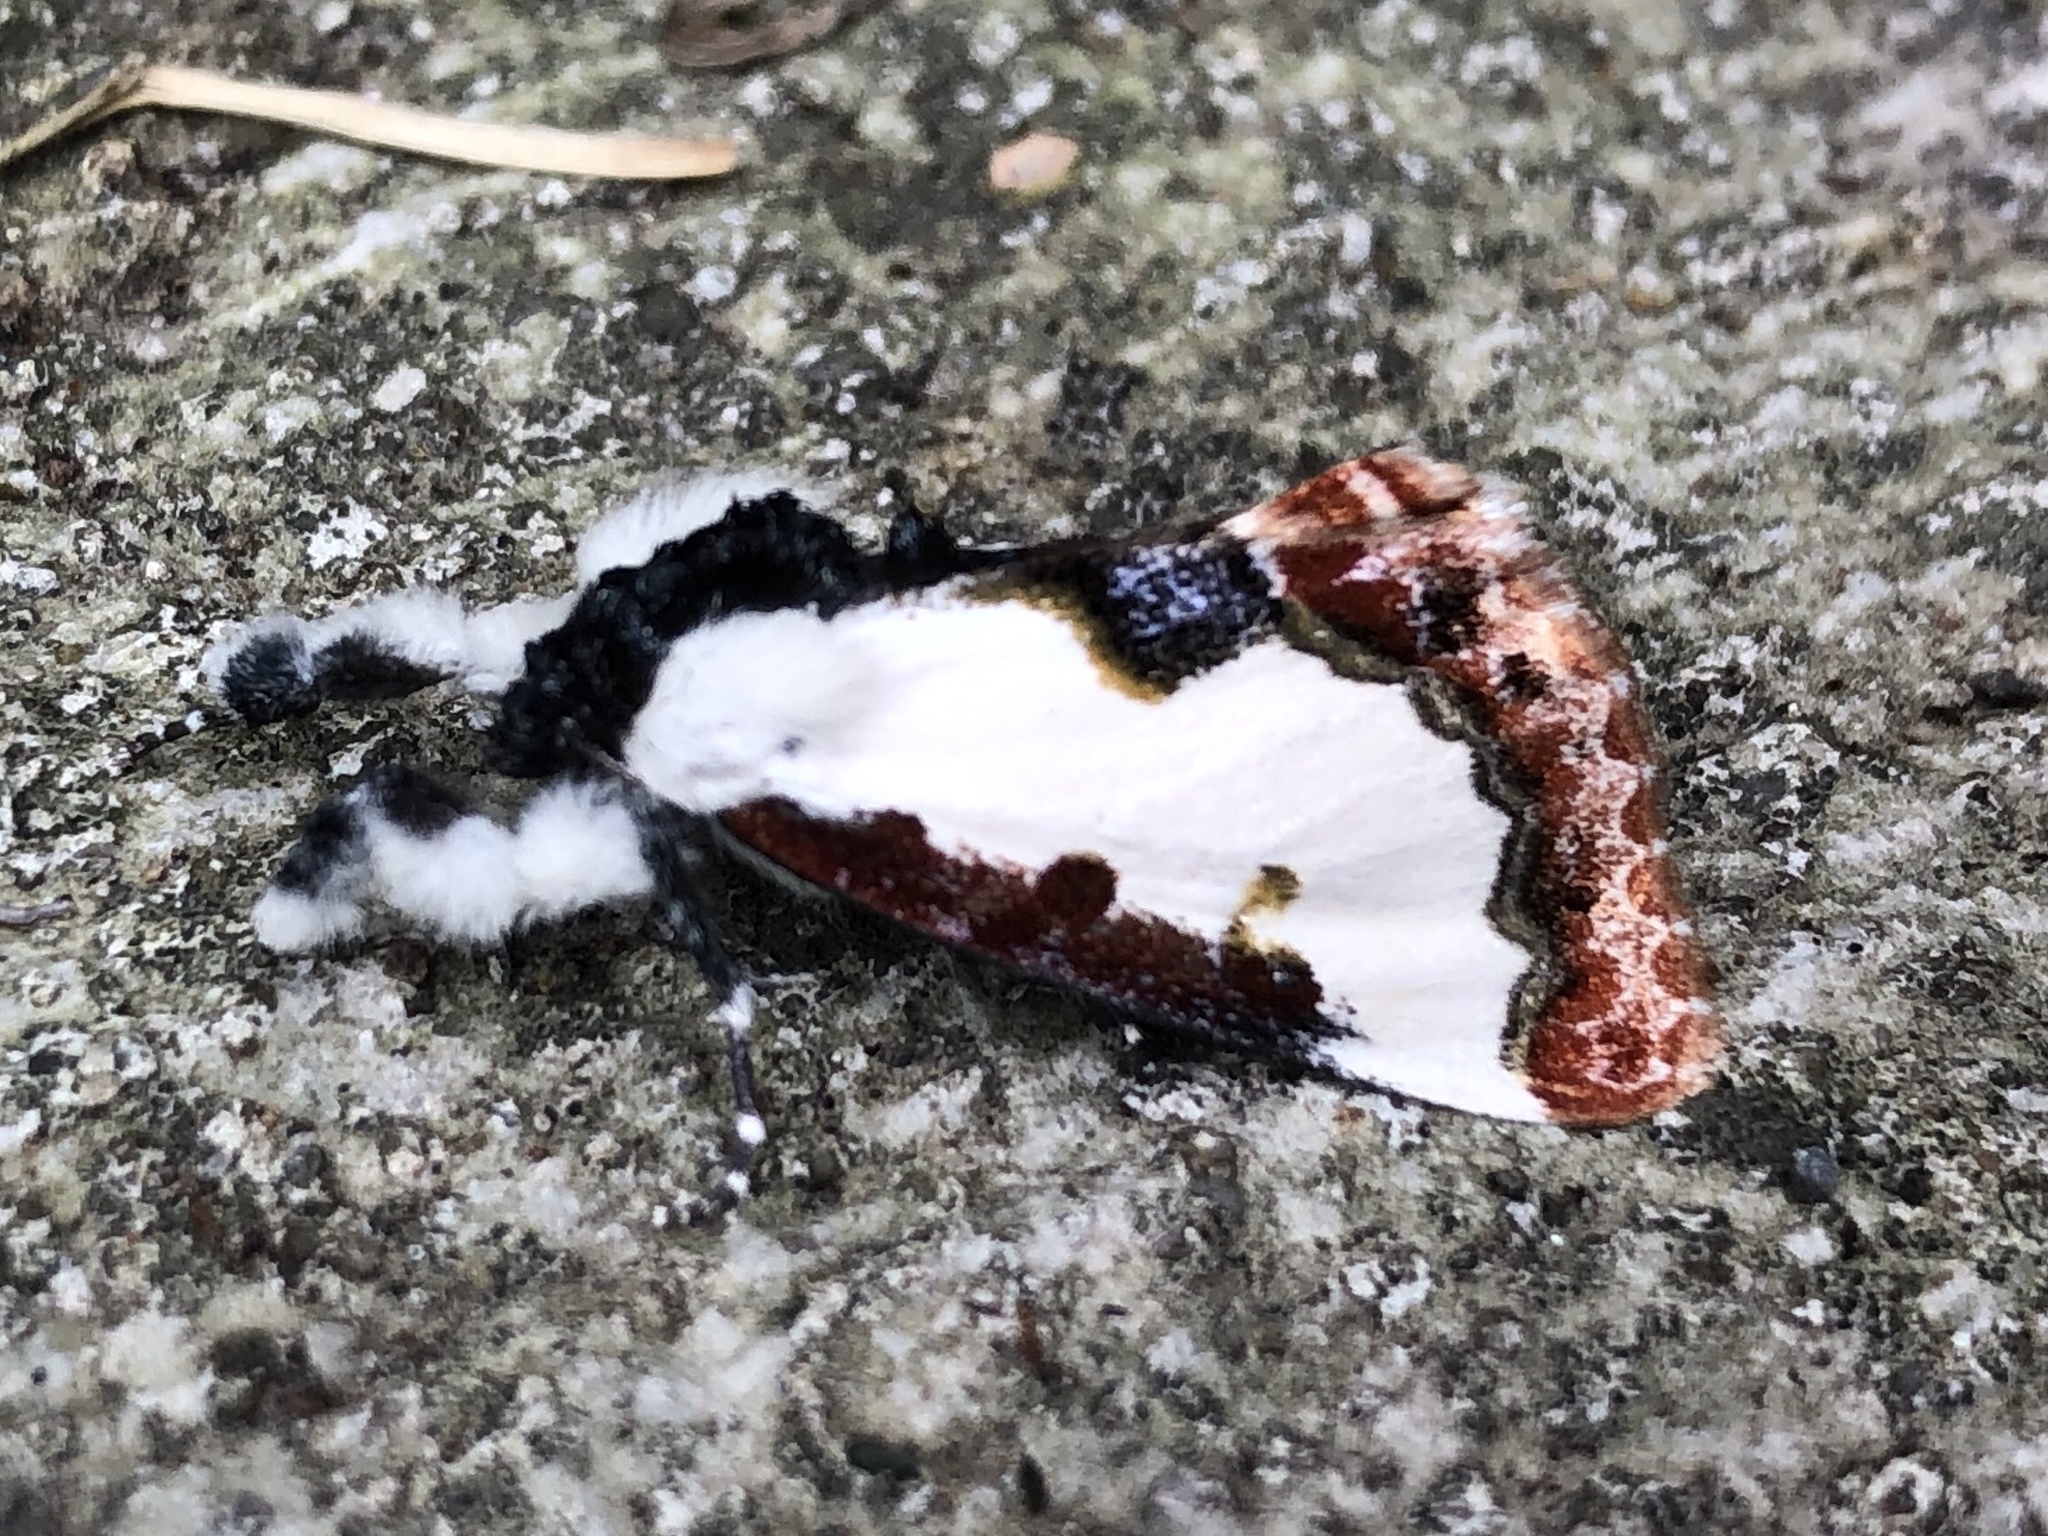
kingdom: Animalia
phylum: Arthropoda
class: Insecta
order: Lepidoptera
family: Noctuidae
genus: Eudryas
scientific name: Eudryas unio
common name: Pearly wood-nymph
